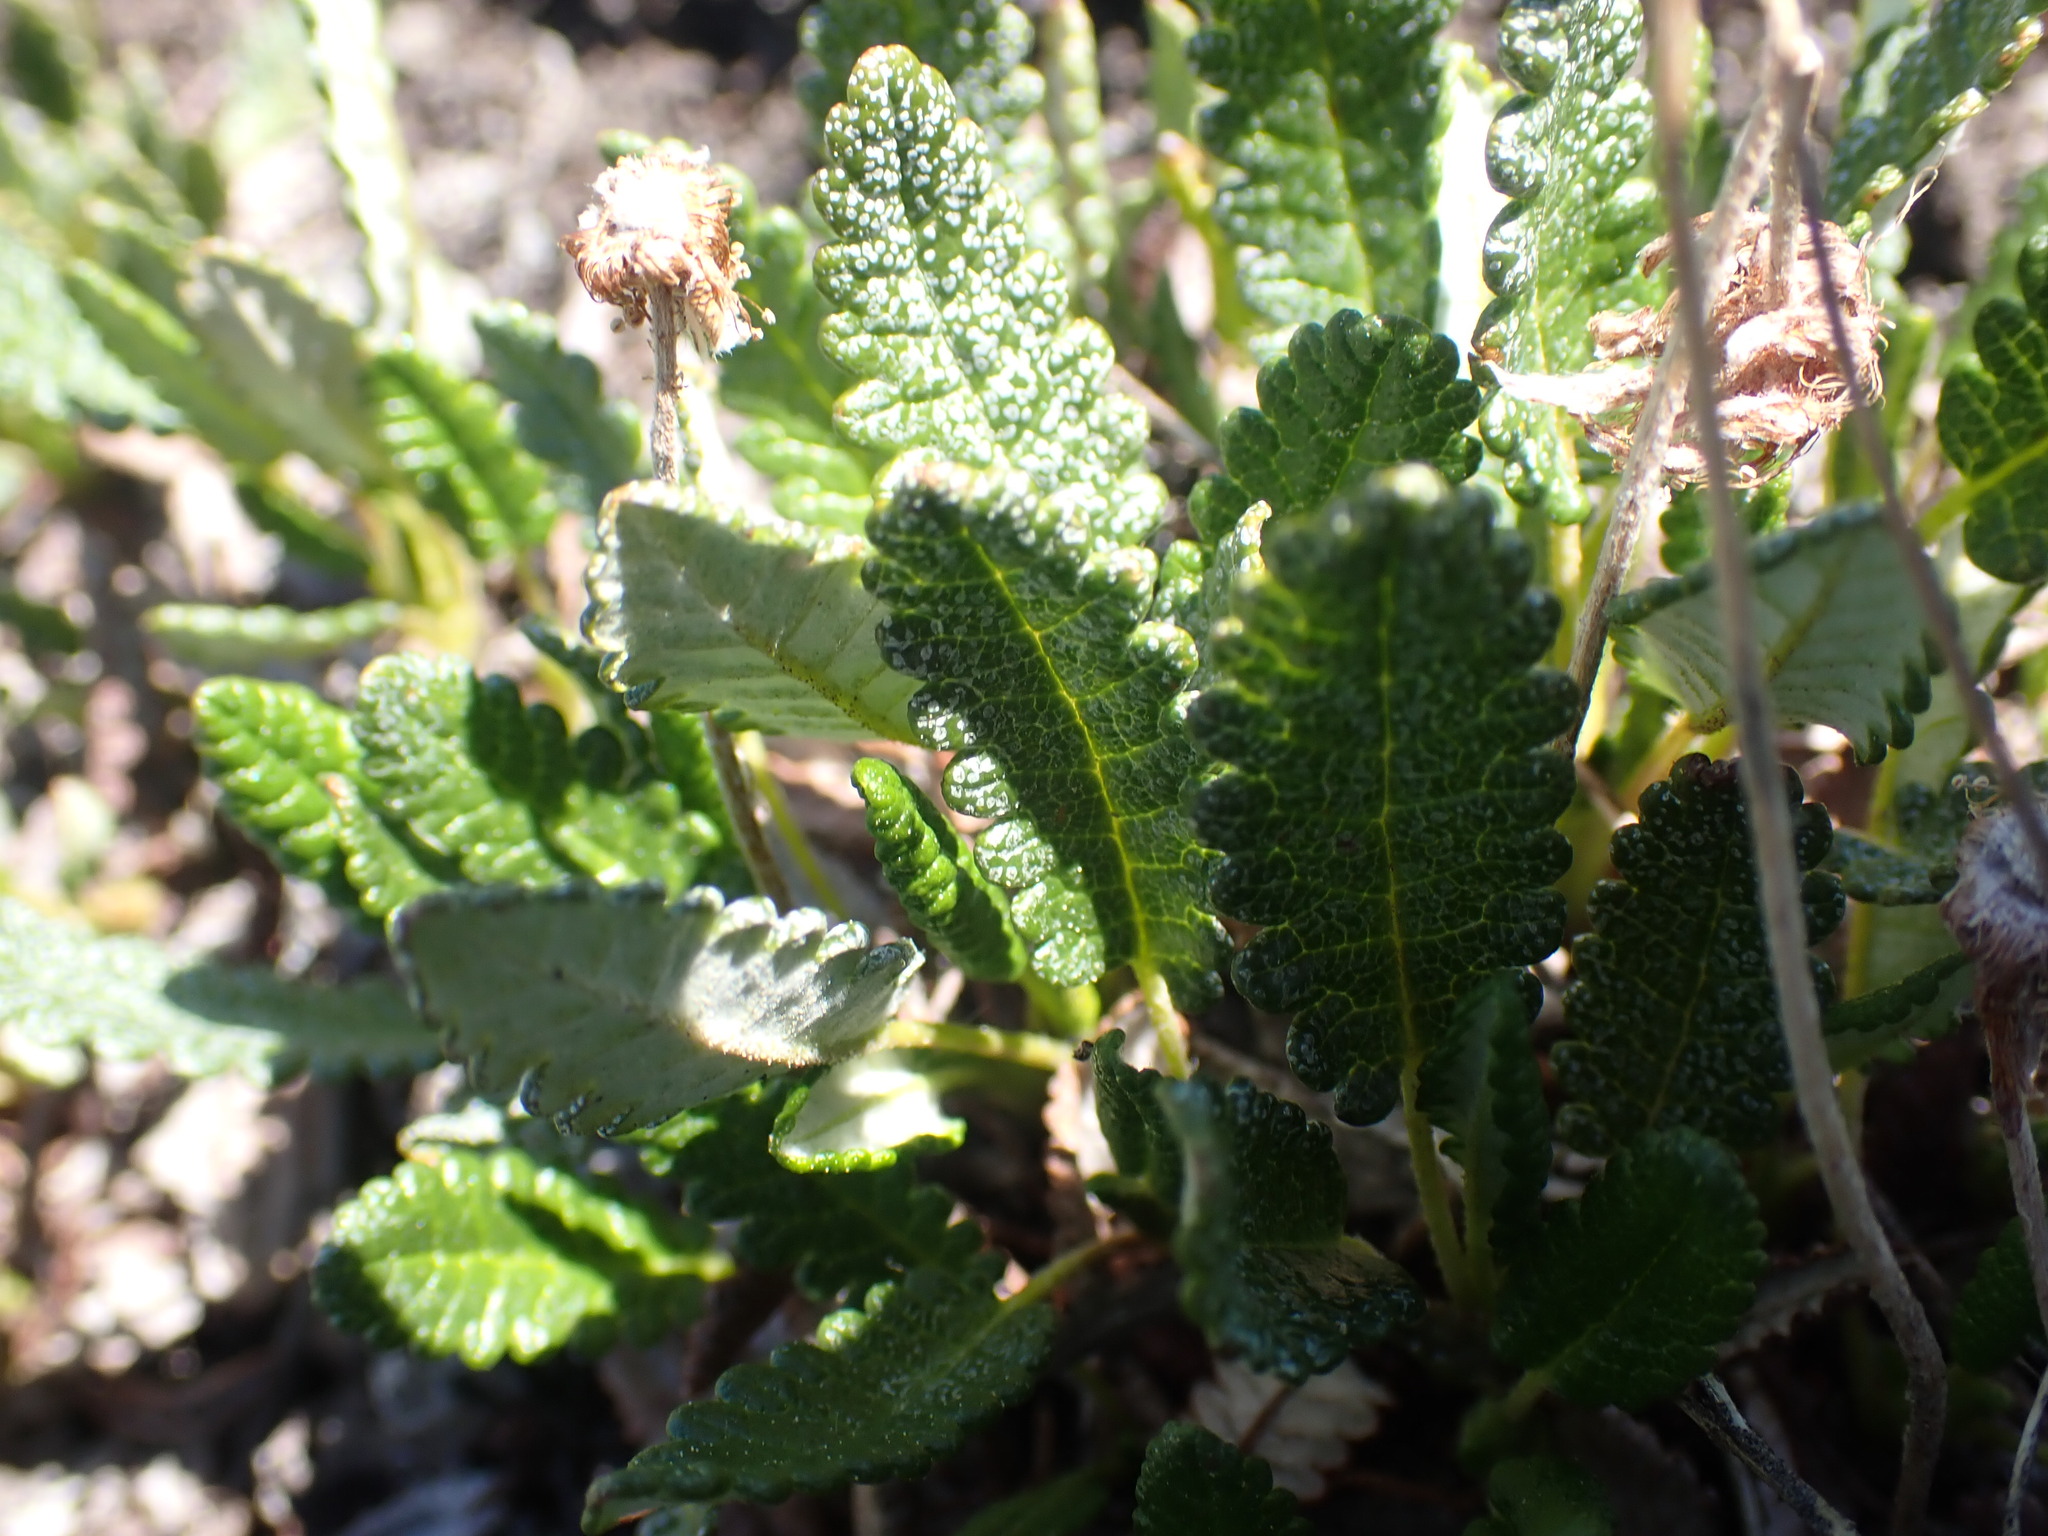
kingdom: Plantae
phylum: Tracheophyta
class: Magnoliopsida
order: Rosales
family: Rosaceae
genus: Dryas
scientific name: Dryas octopetala
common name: Eight-petal mountain-avens
